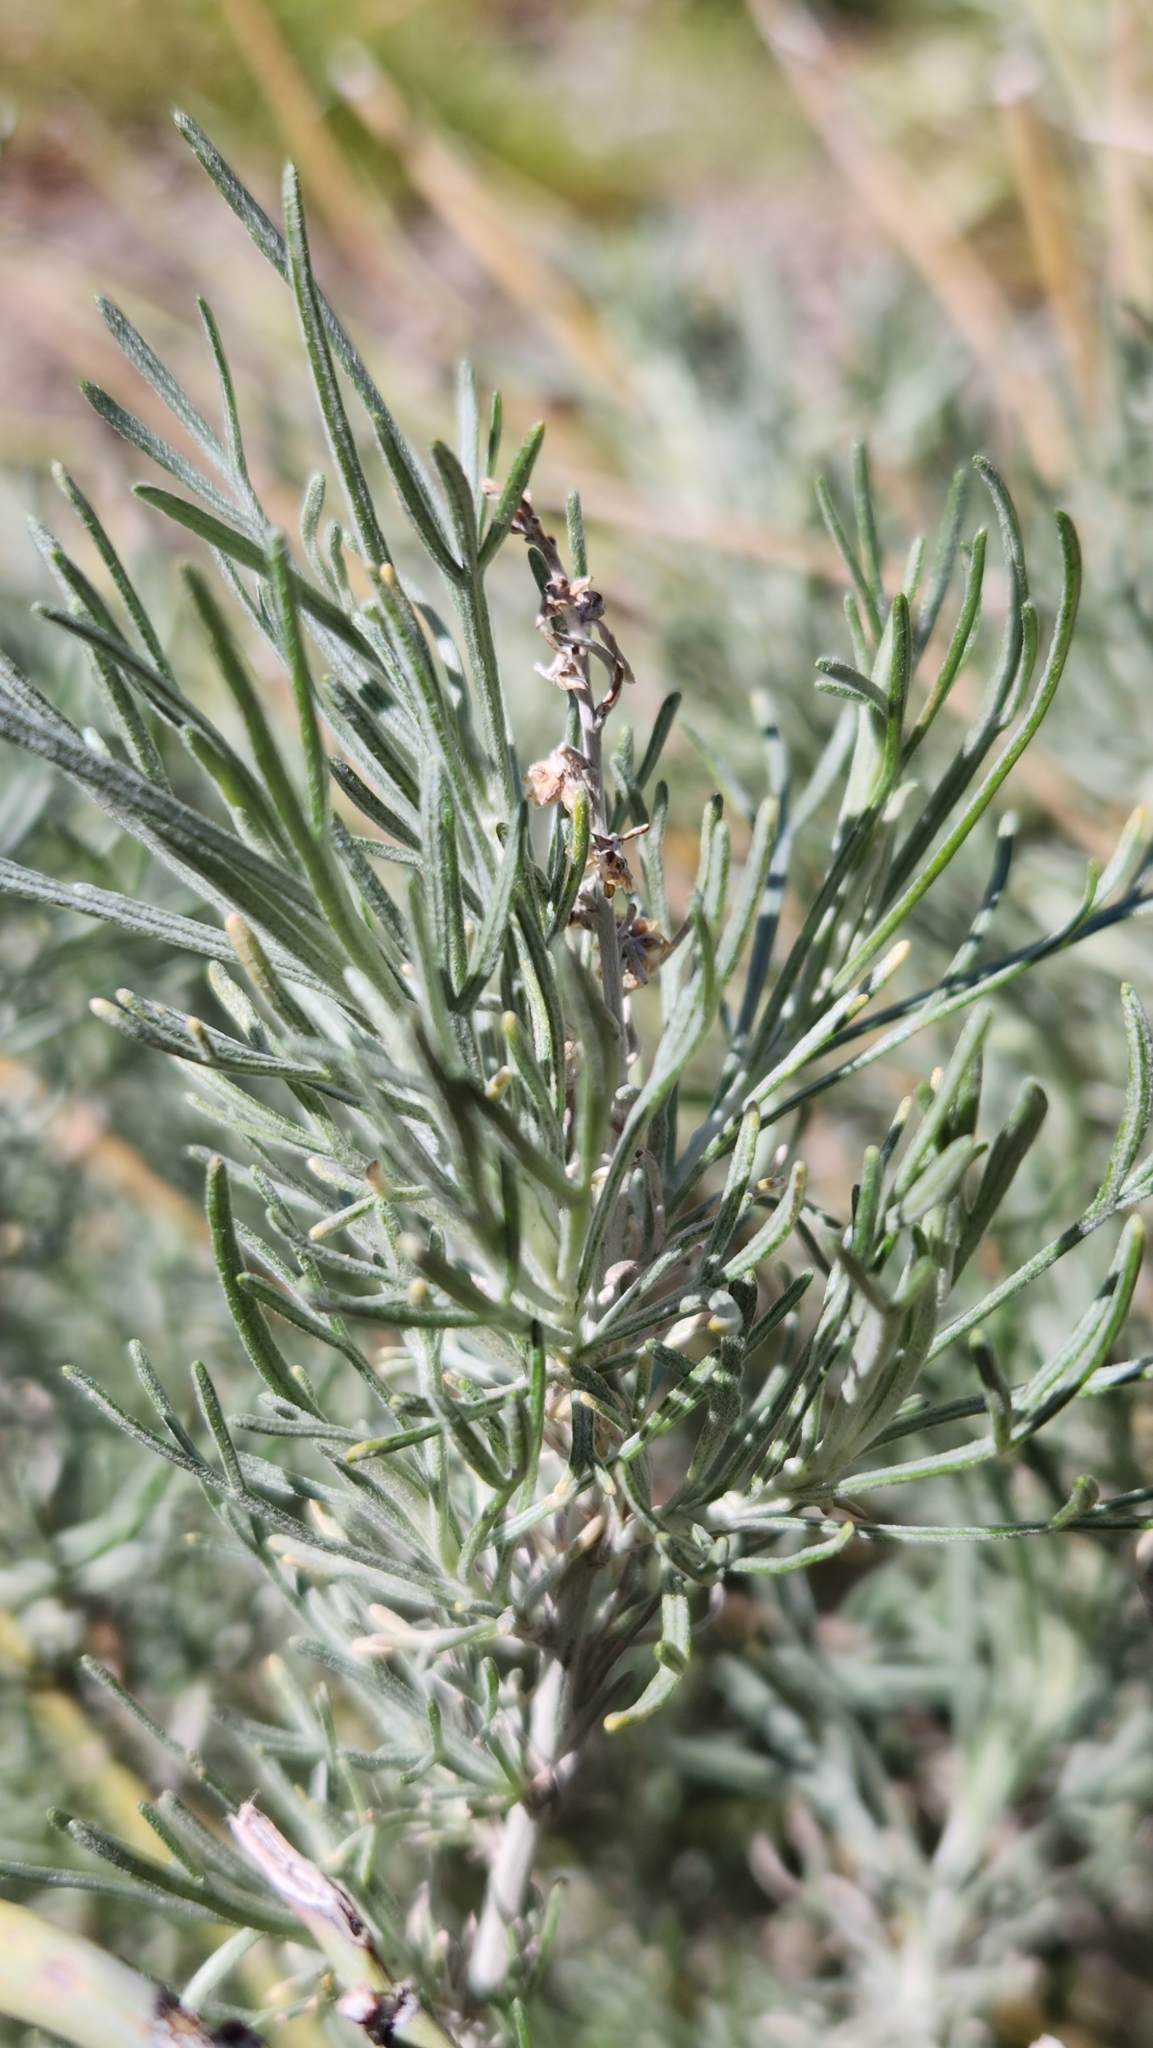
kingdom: Plantae
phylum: Tracheophyta
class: Magnoliopsida
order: Asterales
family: Asteraceae
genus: Artemisia
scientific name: Artemisia californica
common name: California sagebrush
